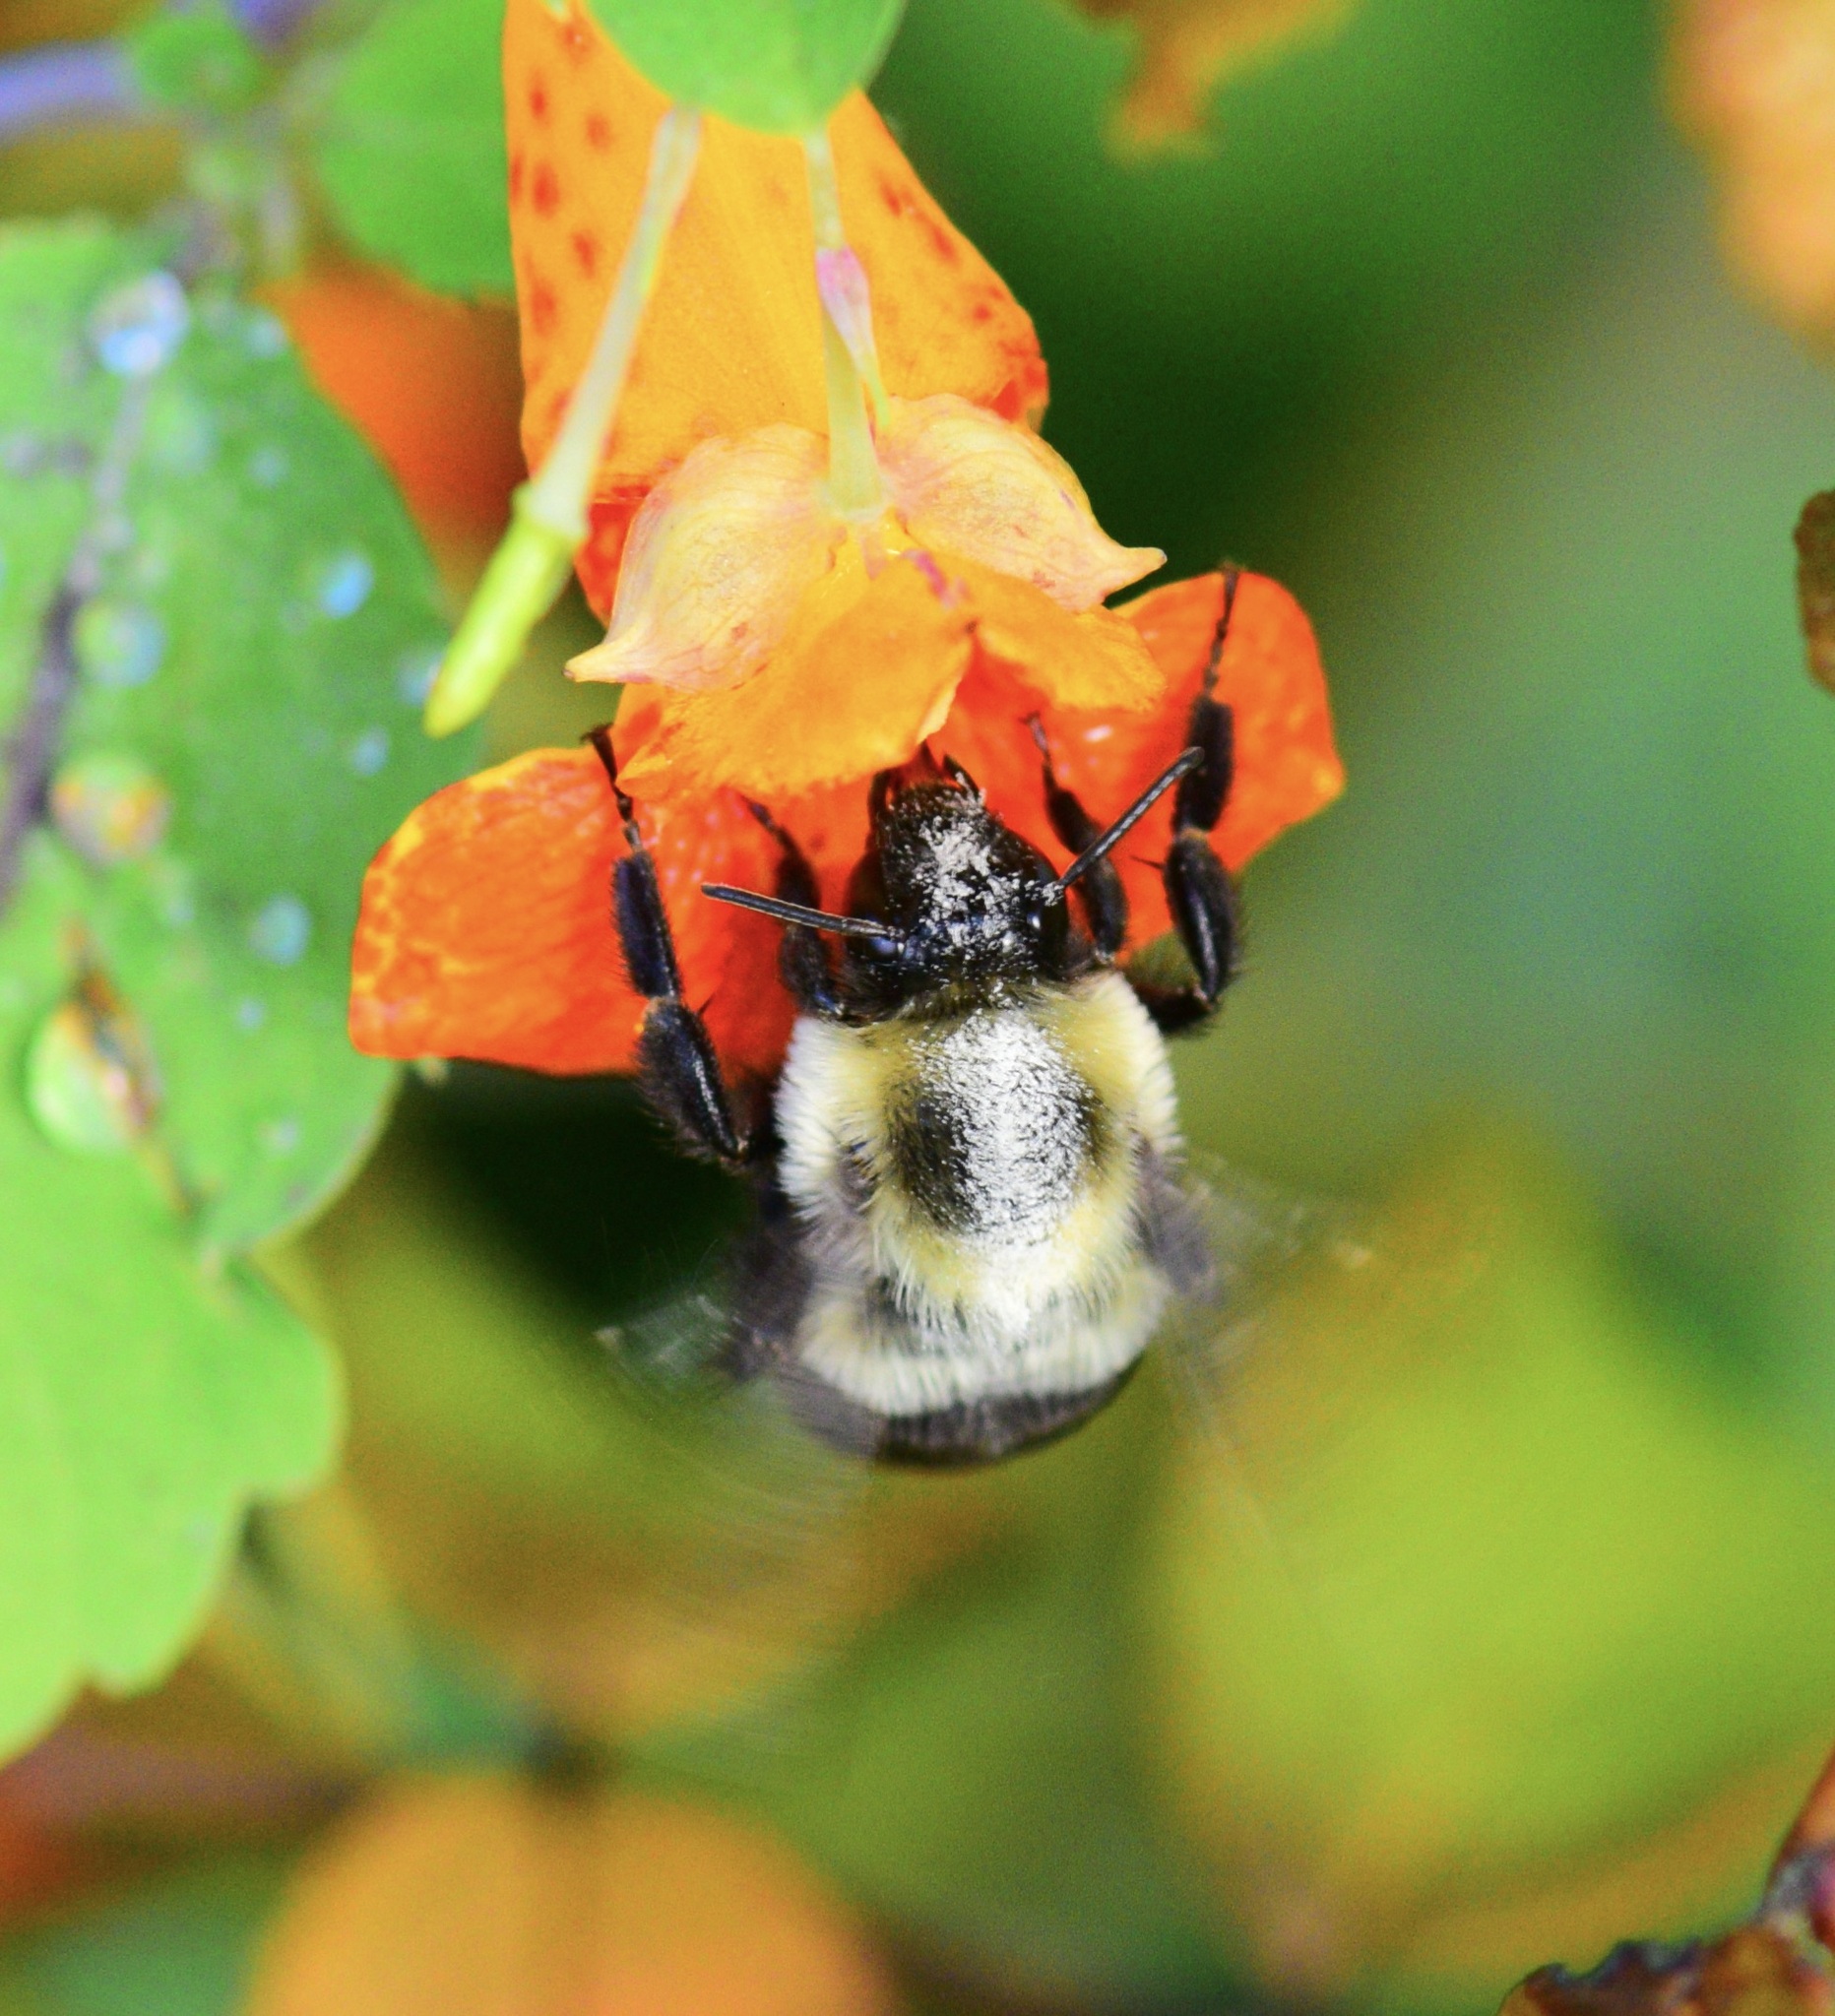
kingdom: Animalia
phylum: Arthropoda
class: Insecta
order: Hymenoptera
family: Apidae
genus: Bombus
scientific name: Bombus impatiens
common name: Common eastern bumble bee
